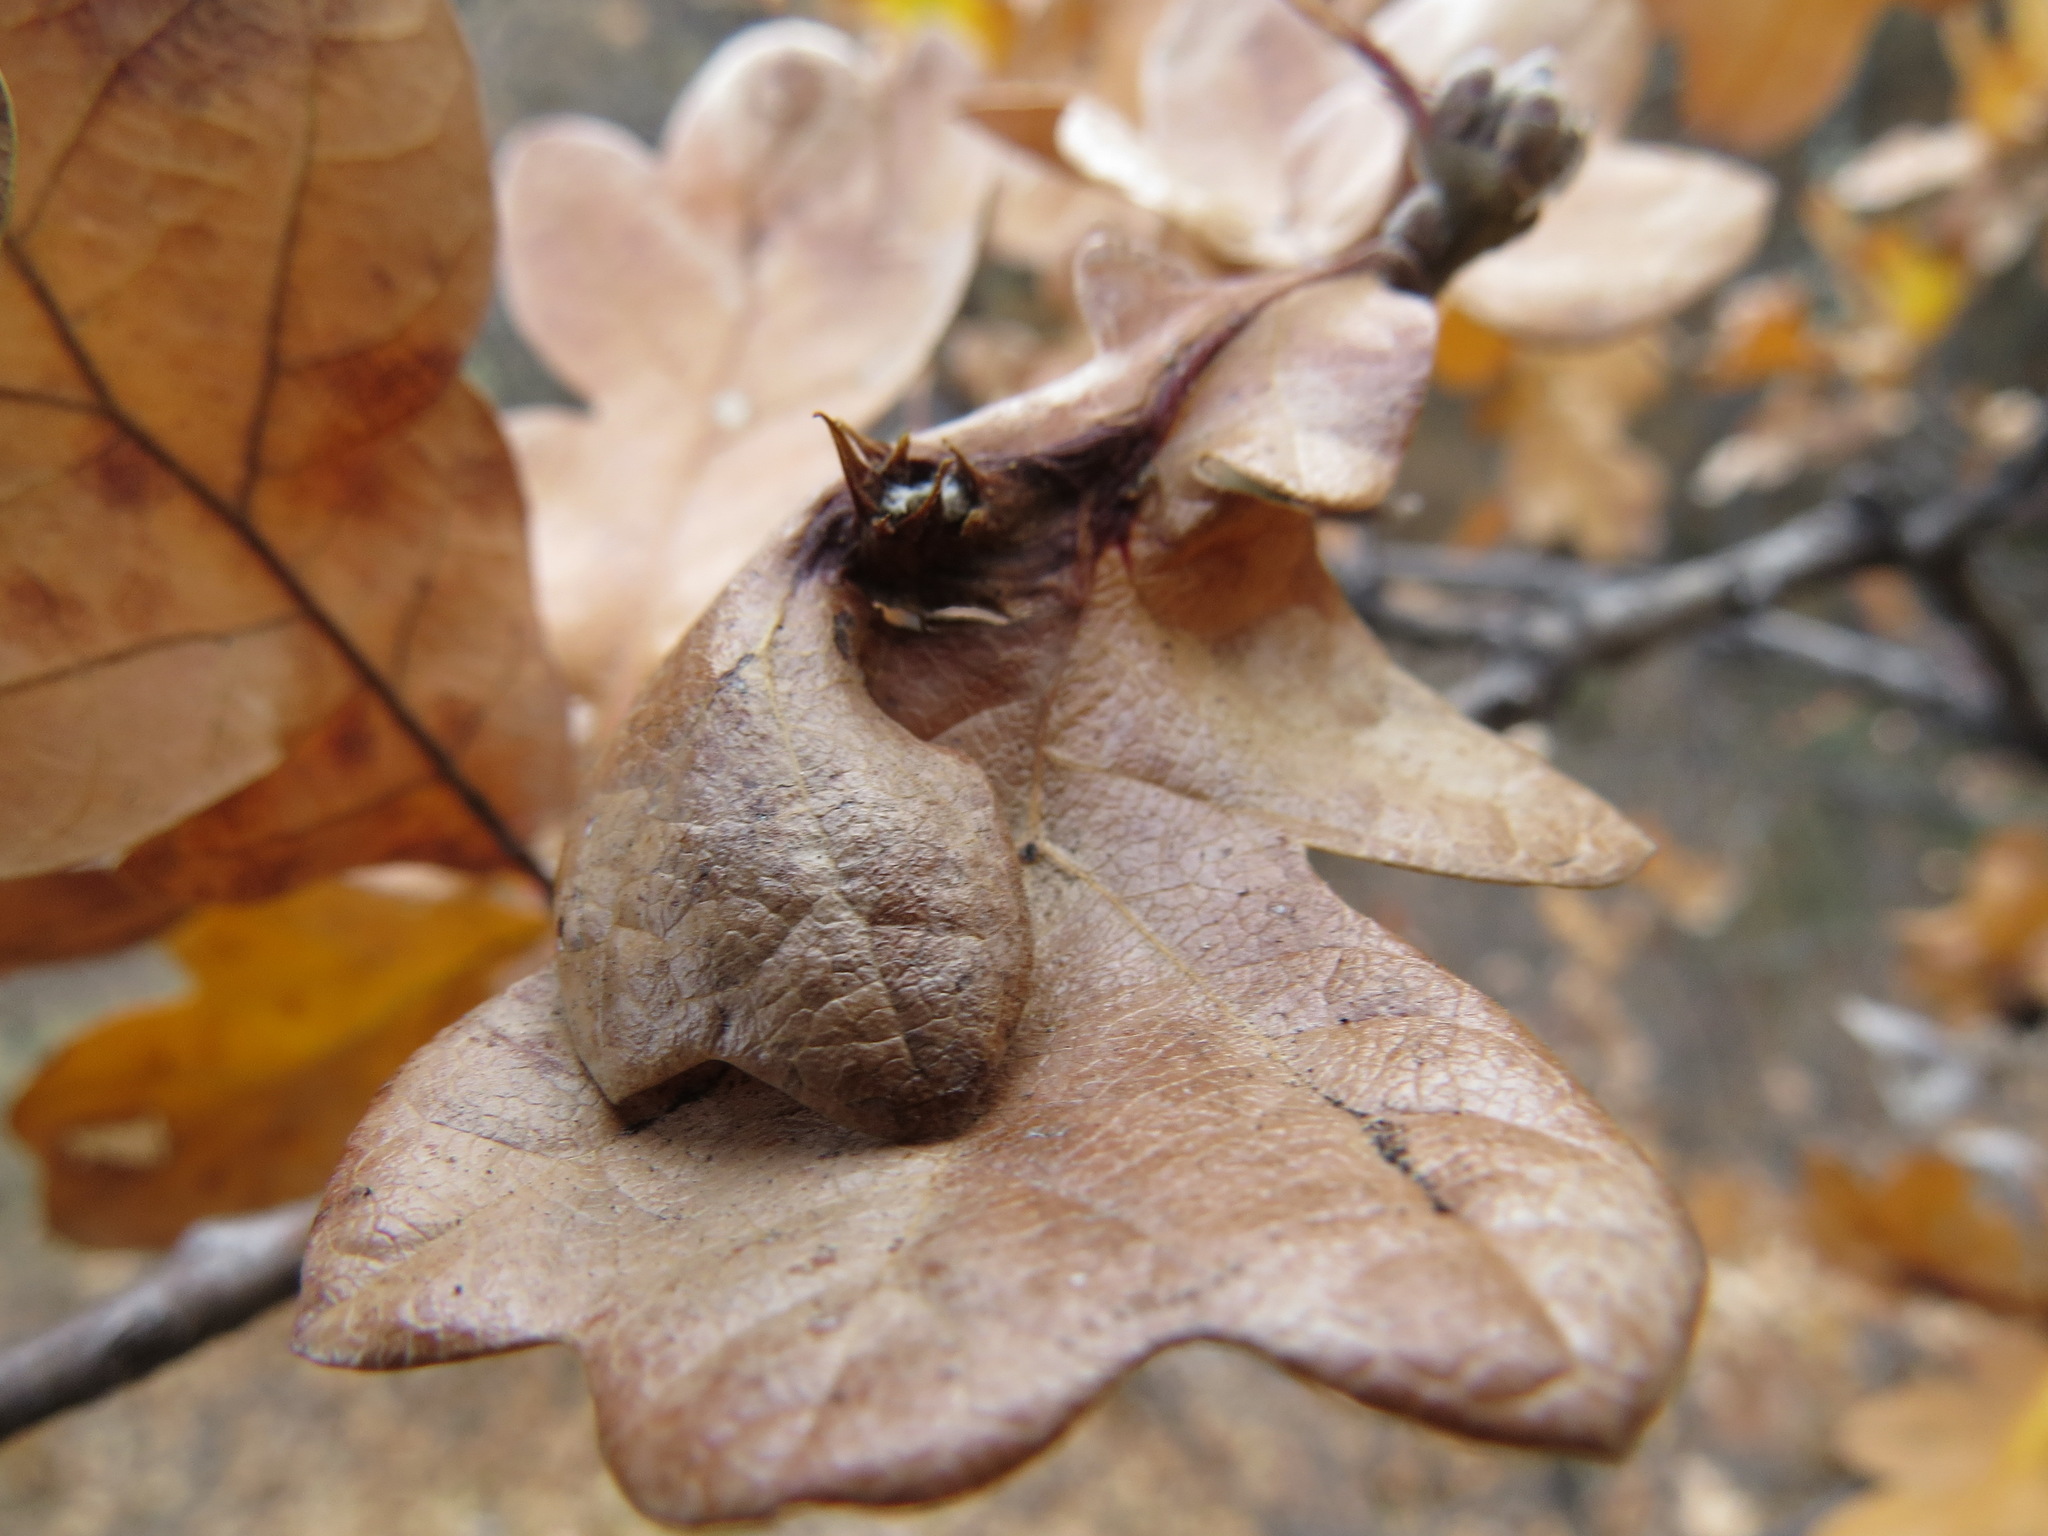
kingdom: Animalia
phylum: Arthropoda
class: Insecta
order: Hymenoptera
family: Cynipidae
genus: Andricus
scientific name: Andricus
